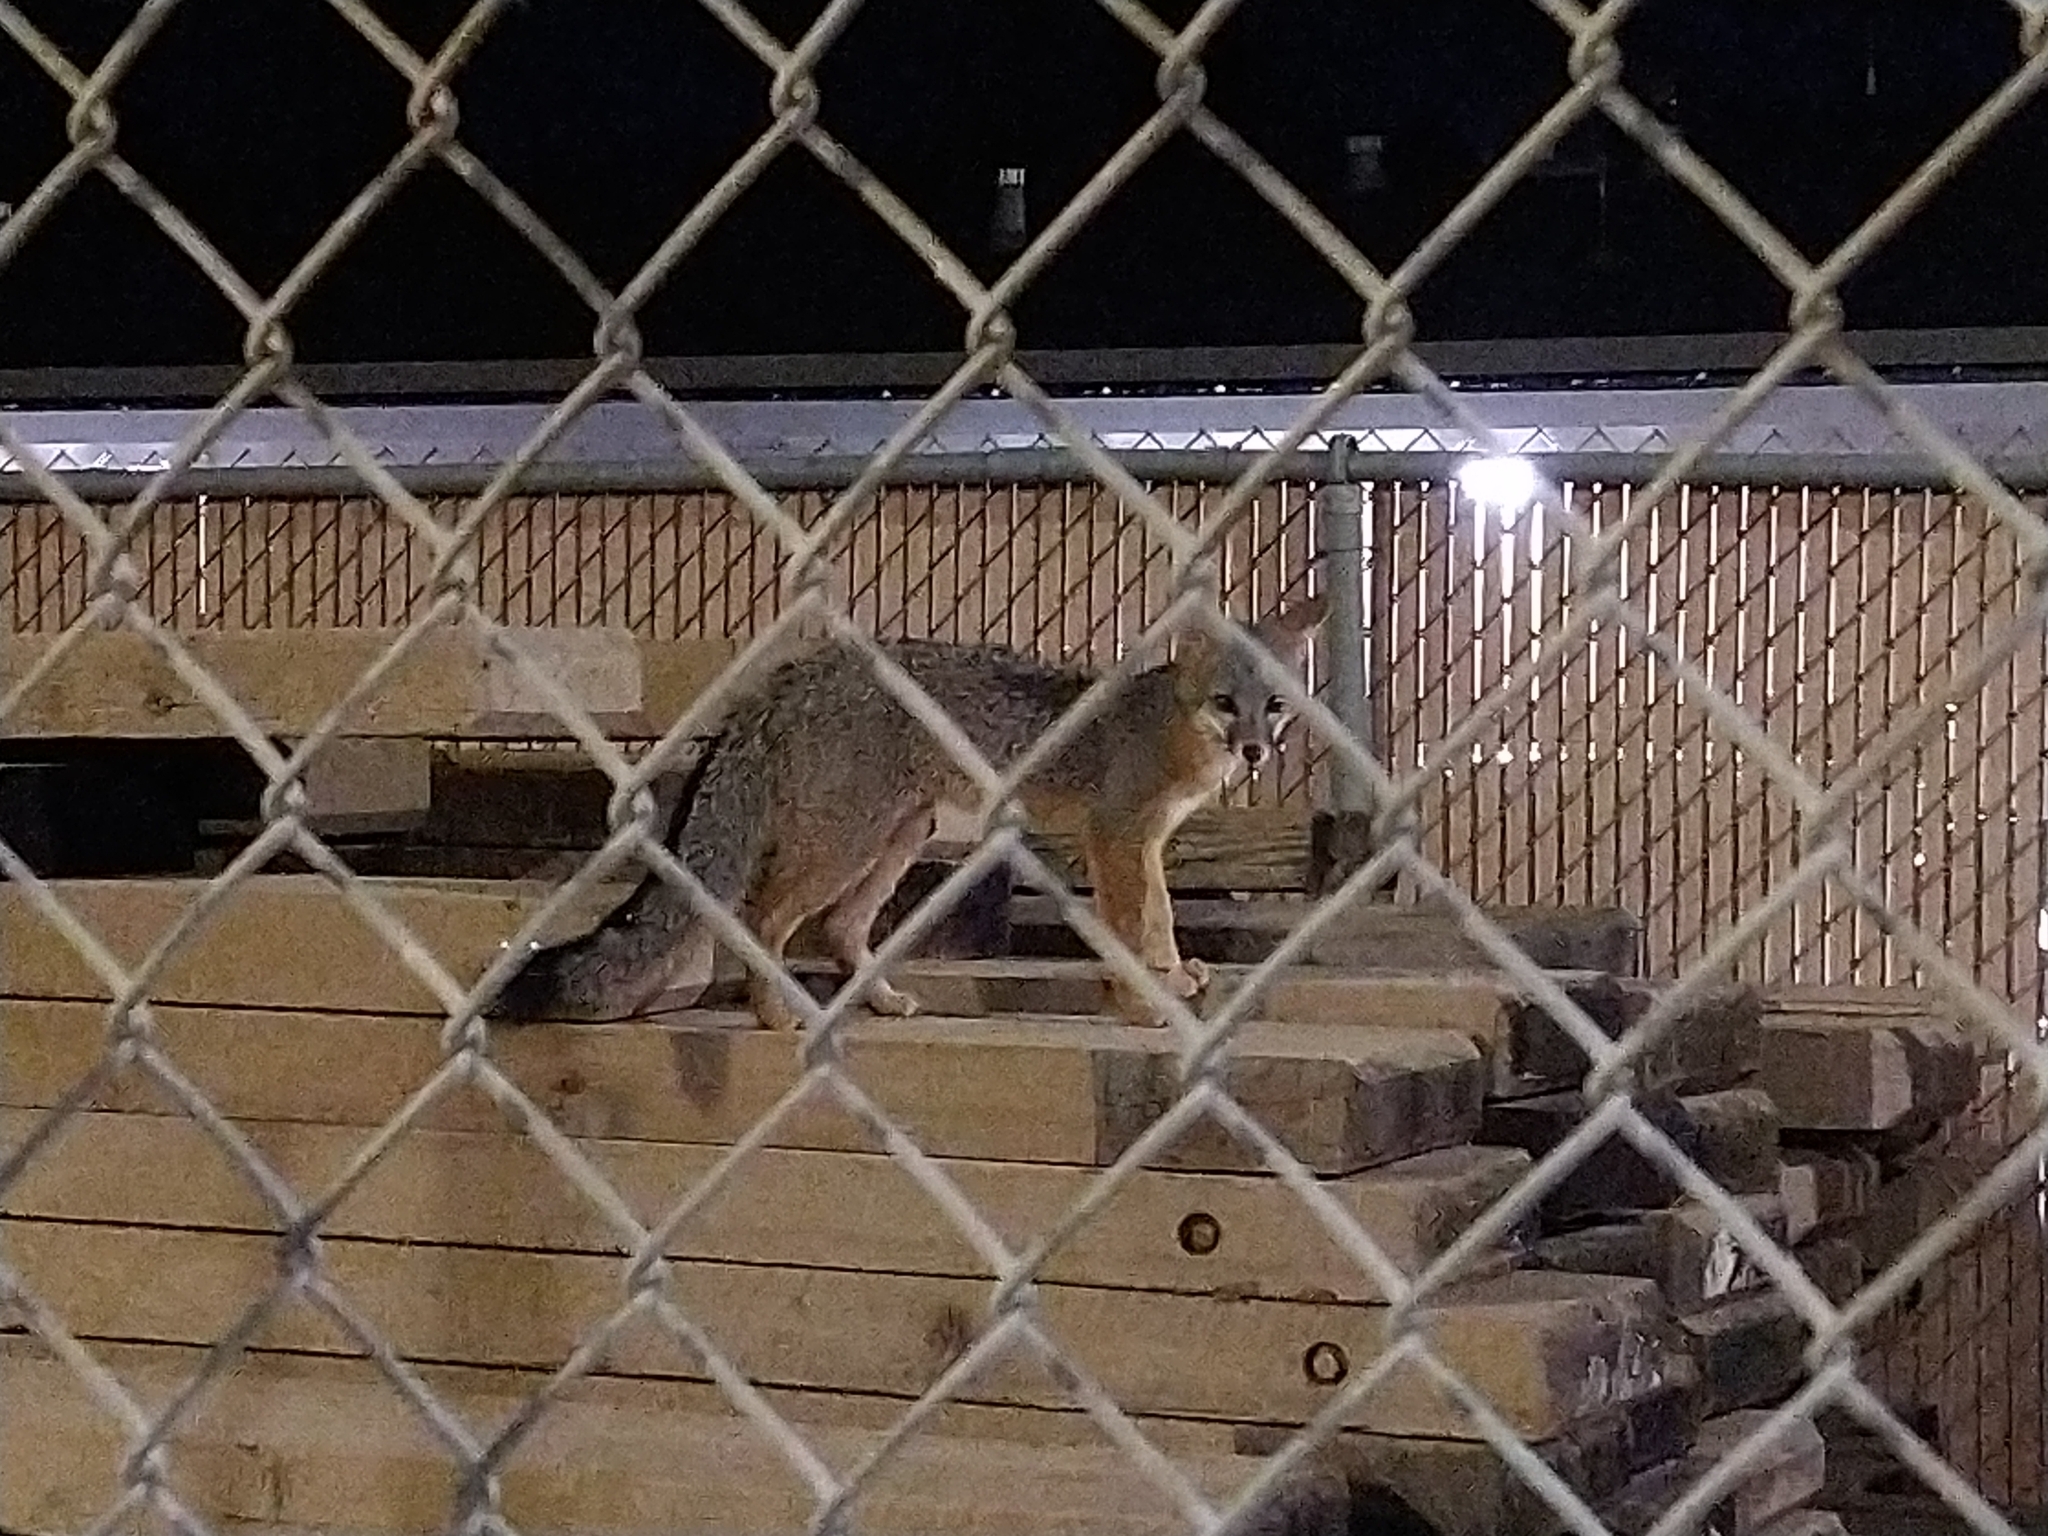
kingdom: Animalia
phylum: Chordata
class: Mammalia
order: Carnivora
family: Canidae
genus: Urocyon
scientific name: Urocyon cinereoargenteus
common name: Gray fox
